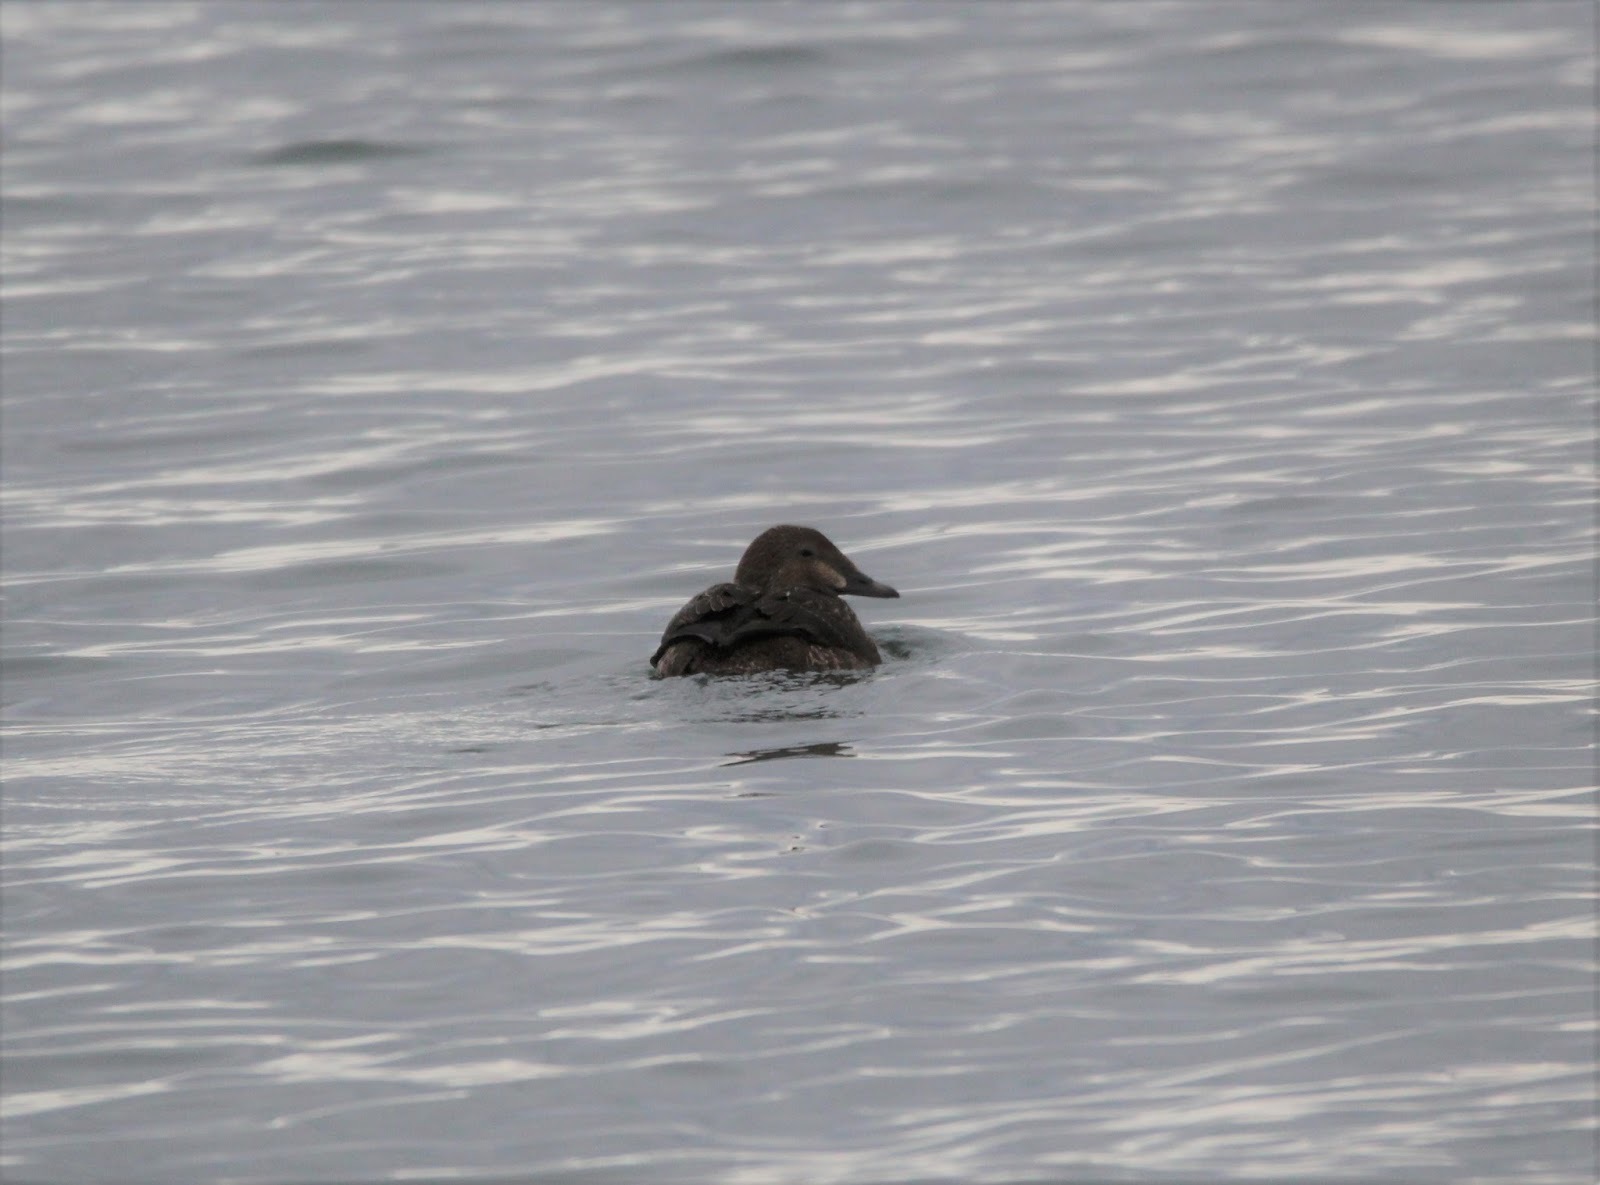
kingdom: Animalia
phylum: Chordata
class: Aves
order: Anseriformes
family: Anatidae
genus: Somateria
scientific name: Somateria spectabilis
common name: King eider
